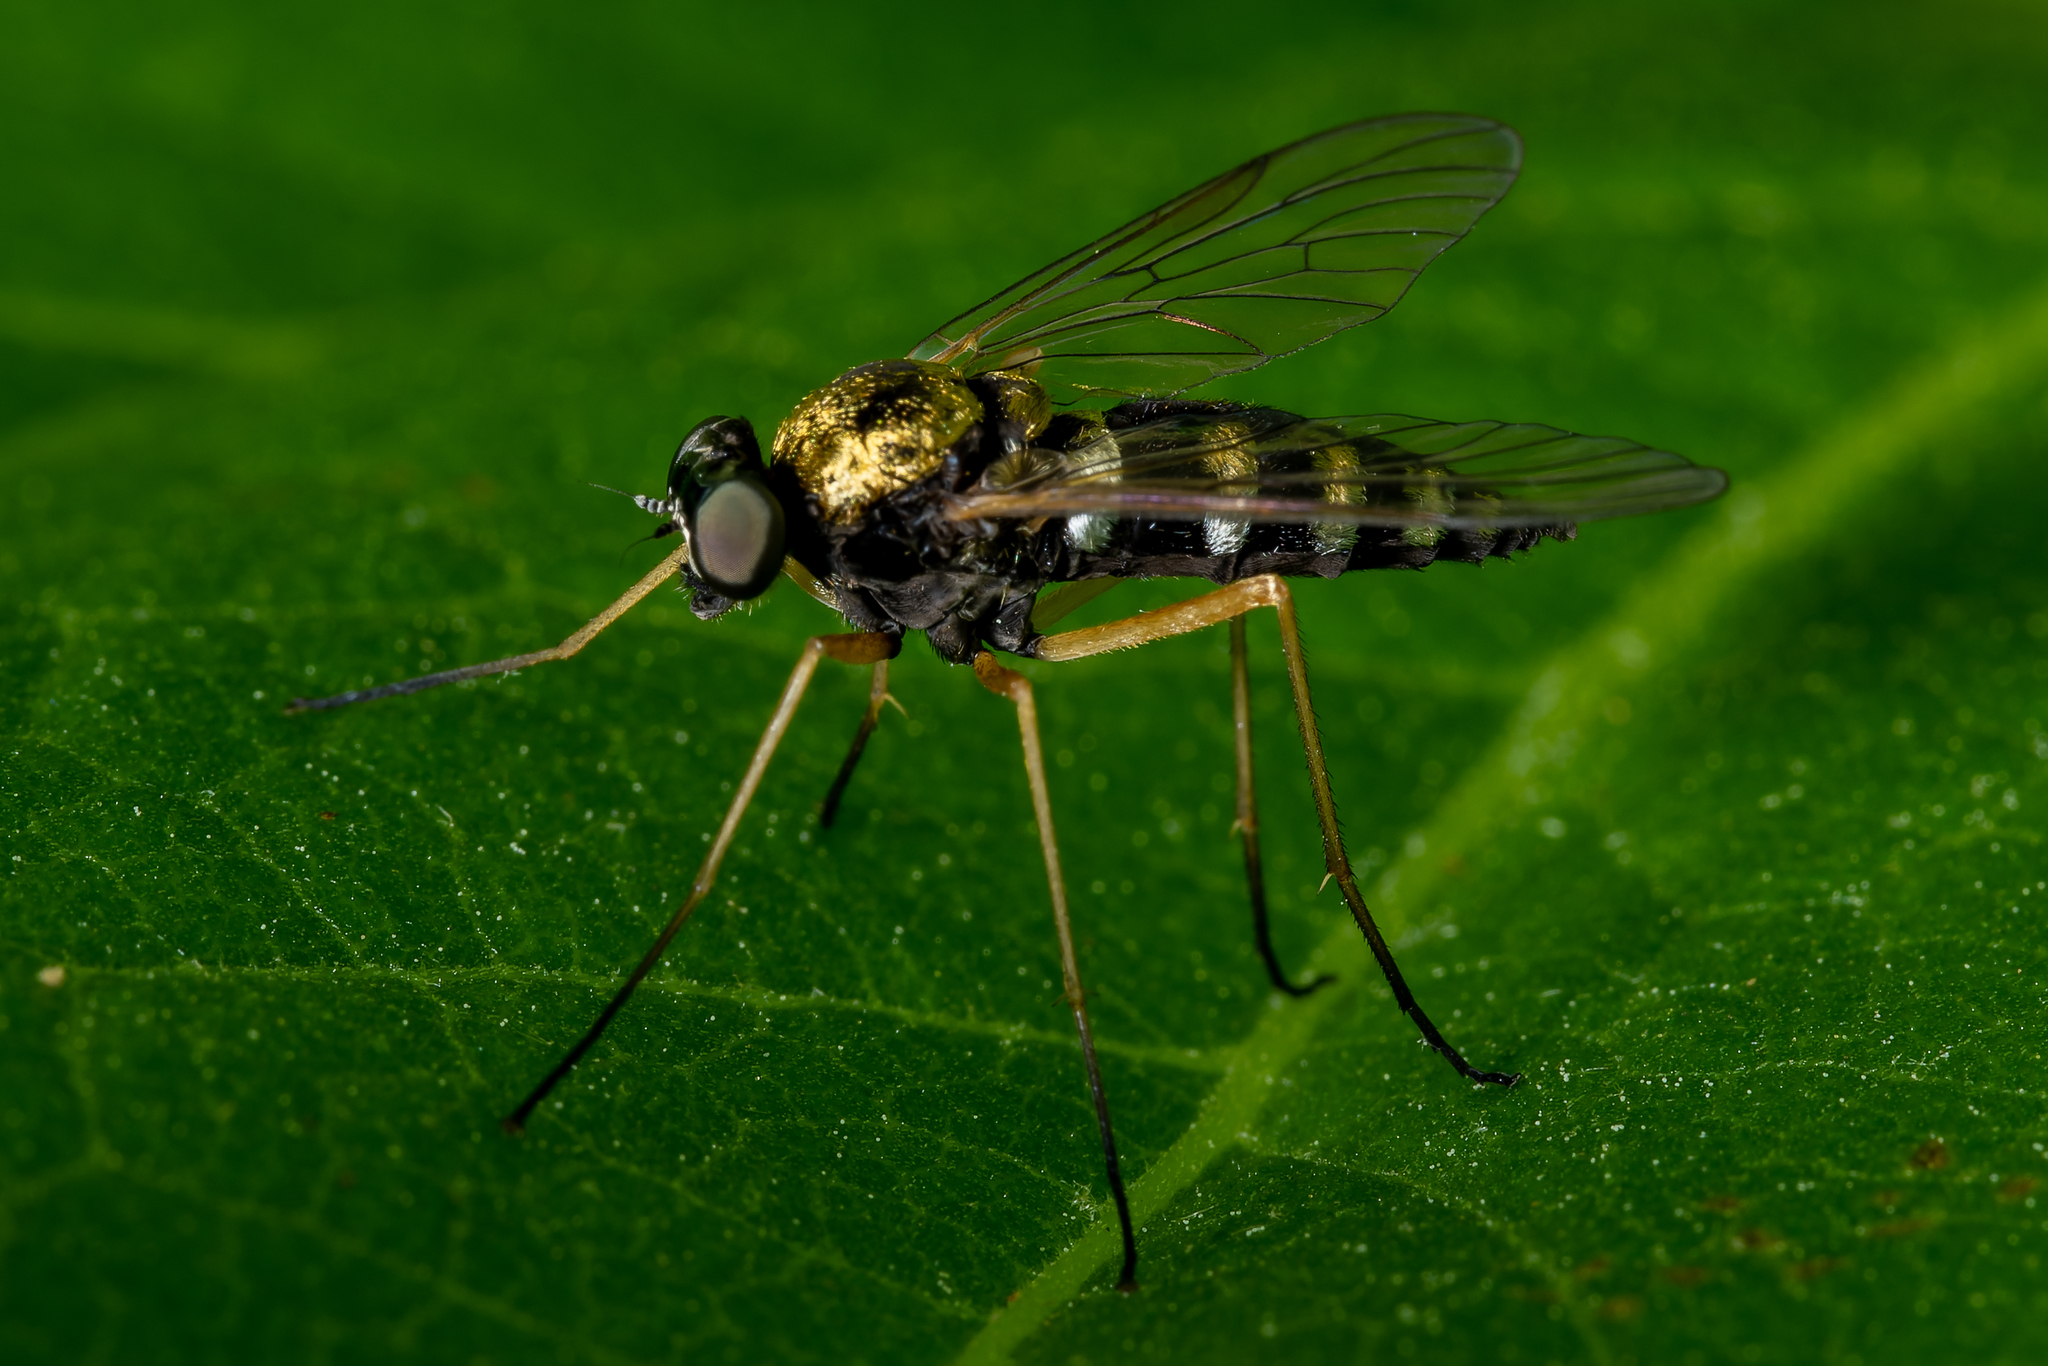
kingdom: Animalia
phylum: Arthropoda
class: Insecta
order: Diptera
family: Rhagionidae
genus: Chrysopilus
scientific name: Chrysopilus ornatus
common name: Ornate snipe fly
